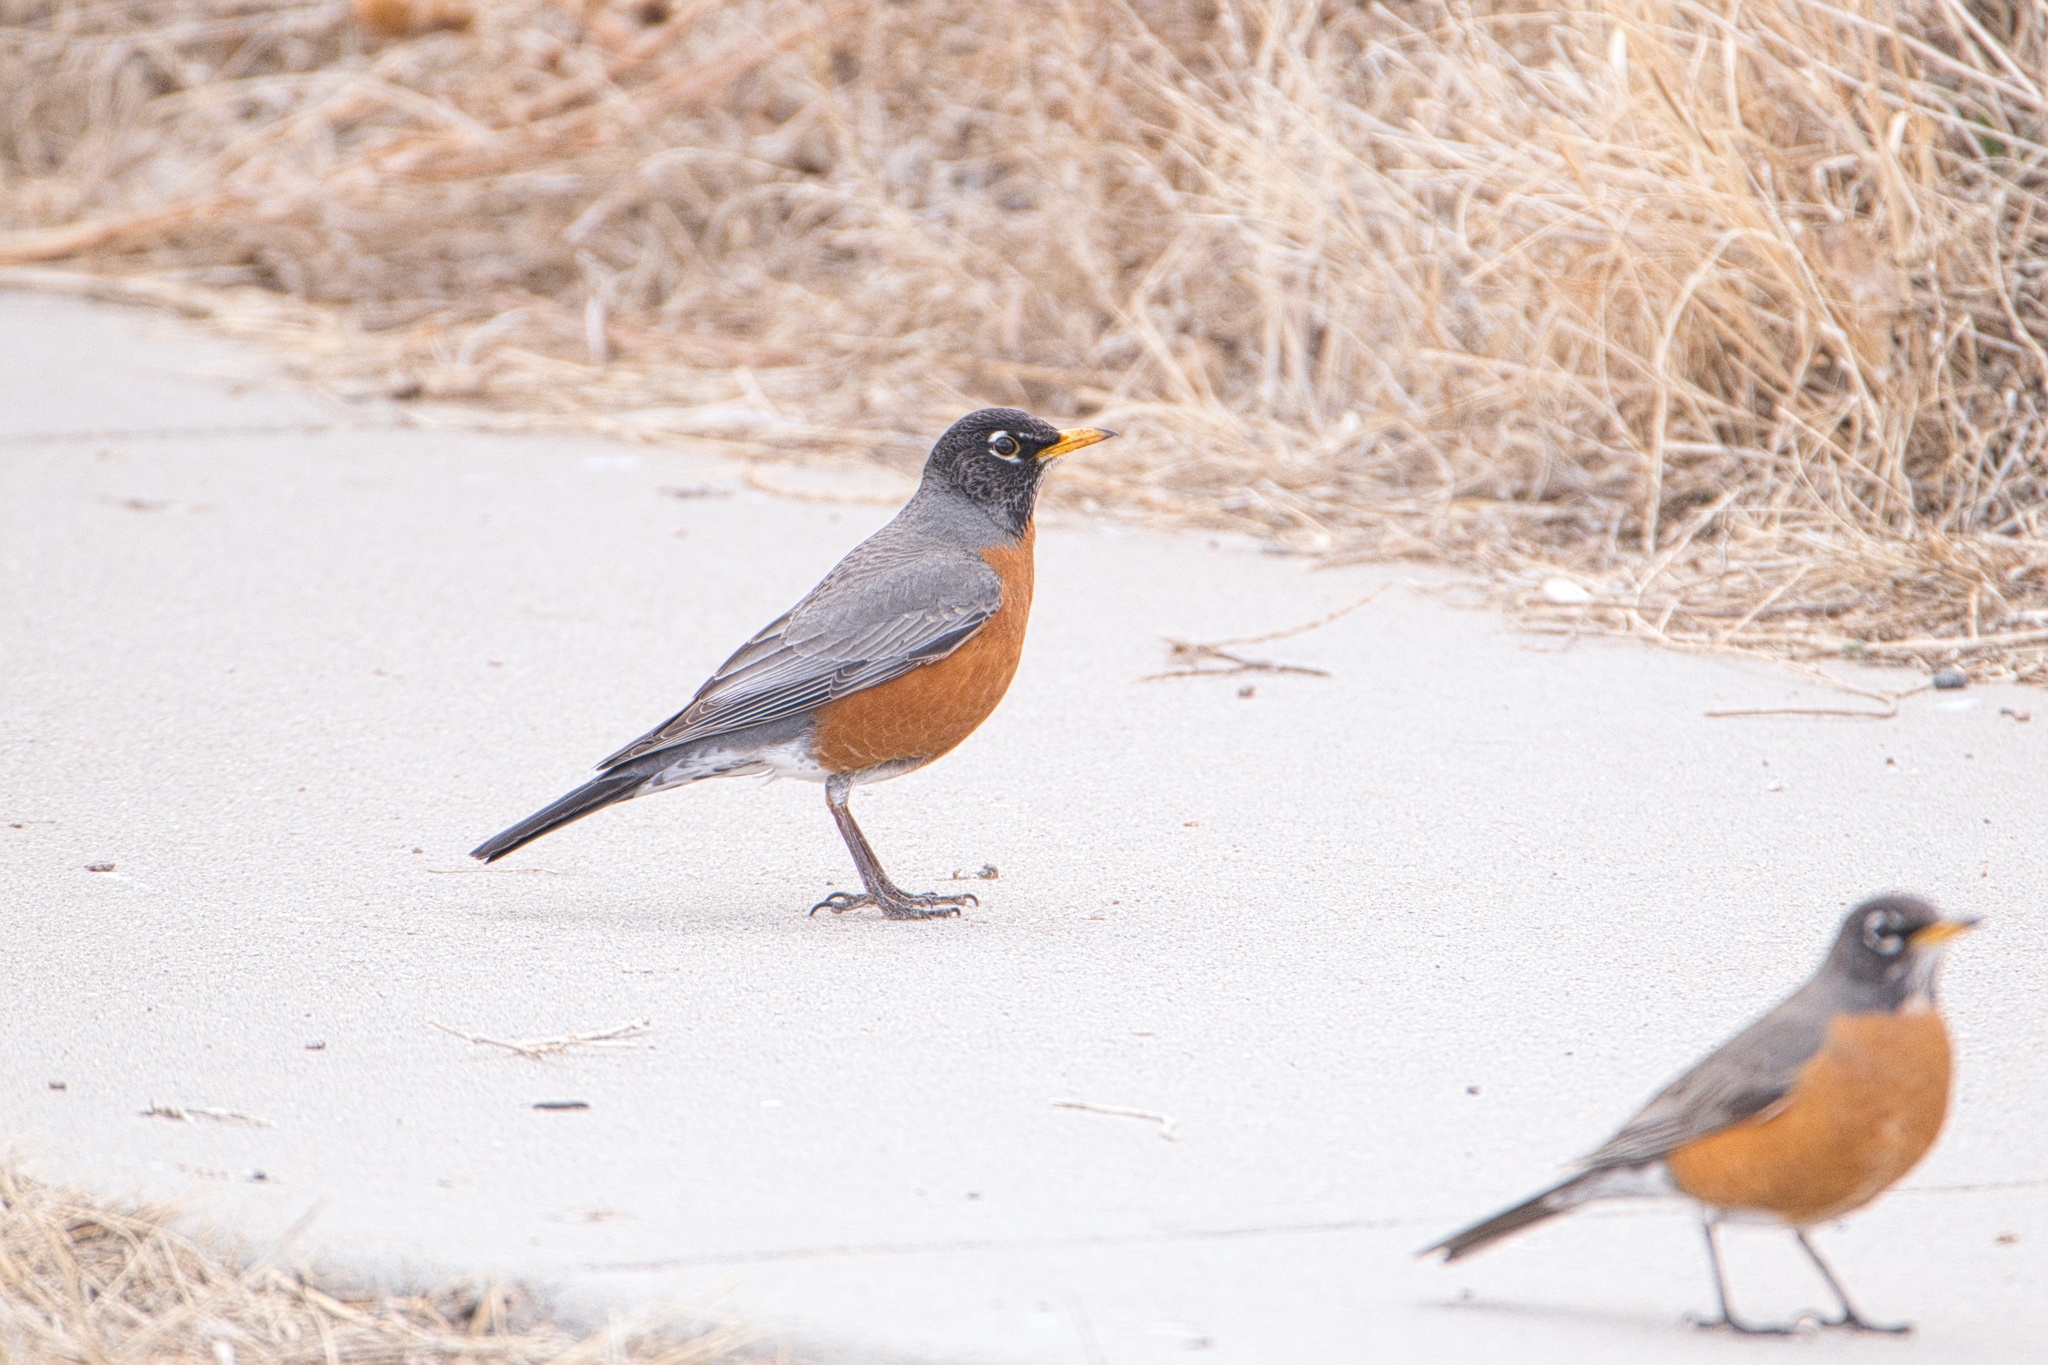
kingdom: Animalia
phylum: Chordata
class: Aves
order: Passeriformes
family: Turdidae
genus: Turdus
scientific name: Turdus migratorius
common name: American robin
